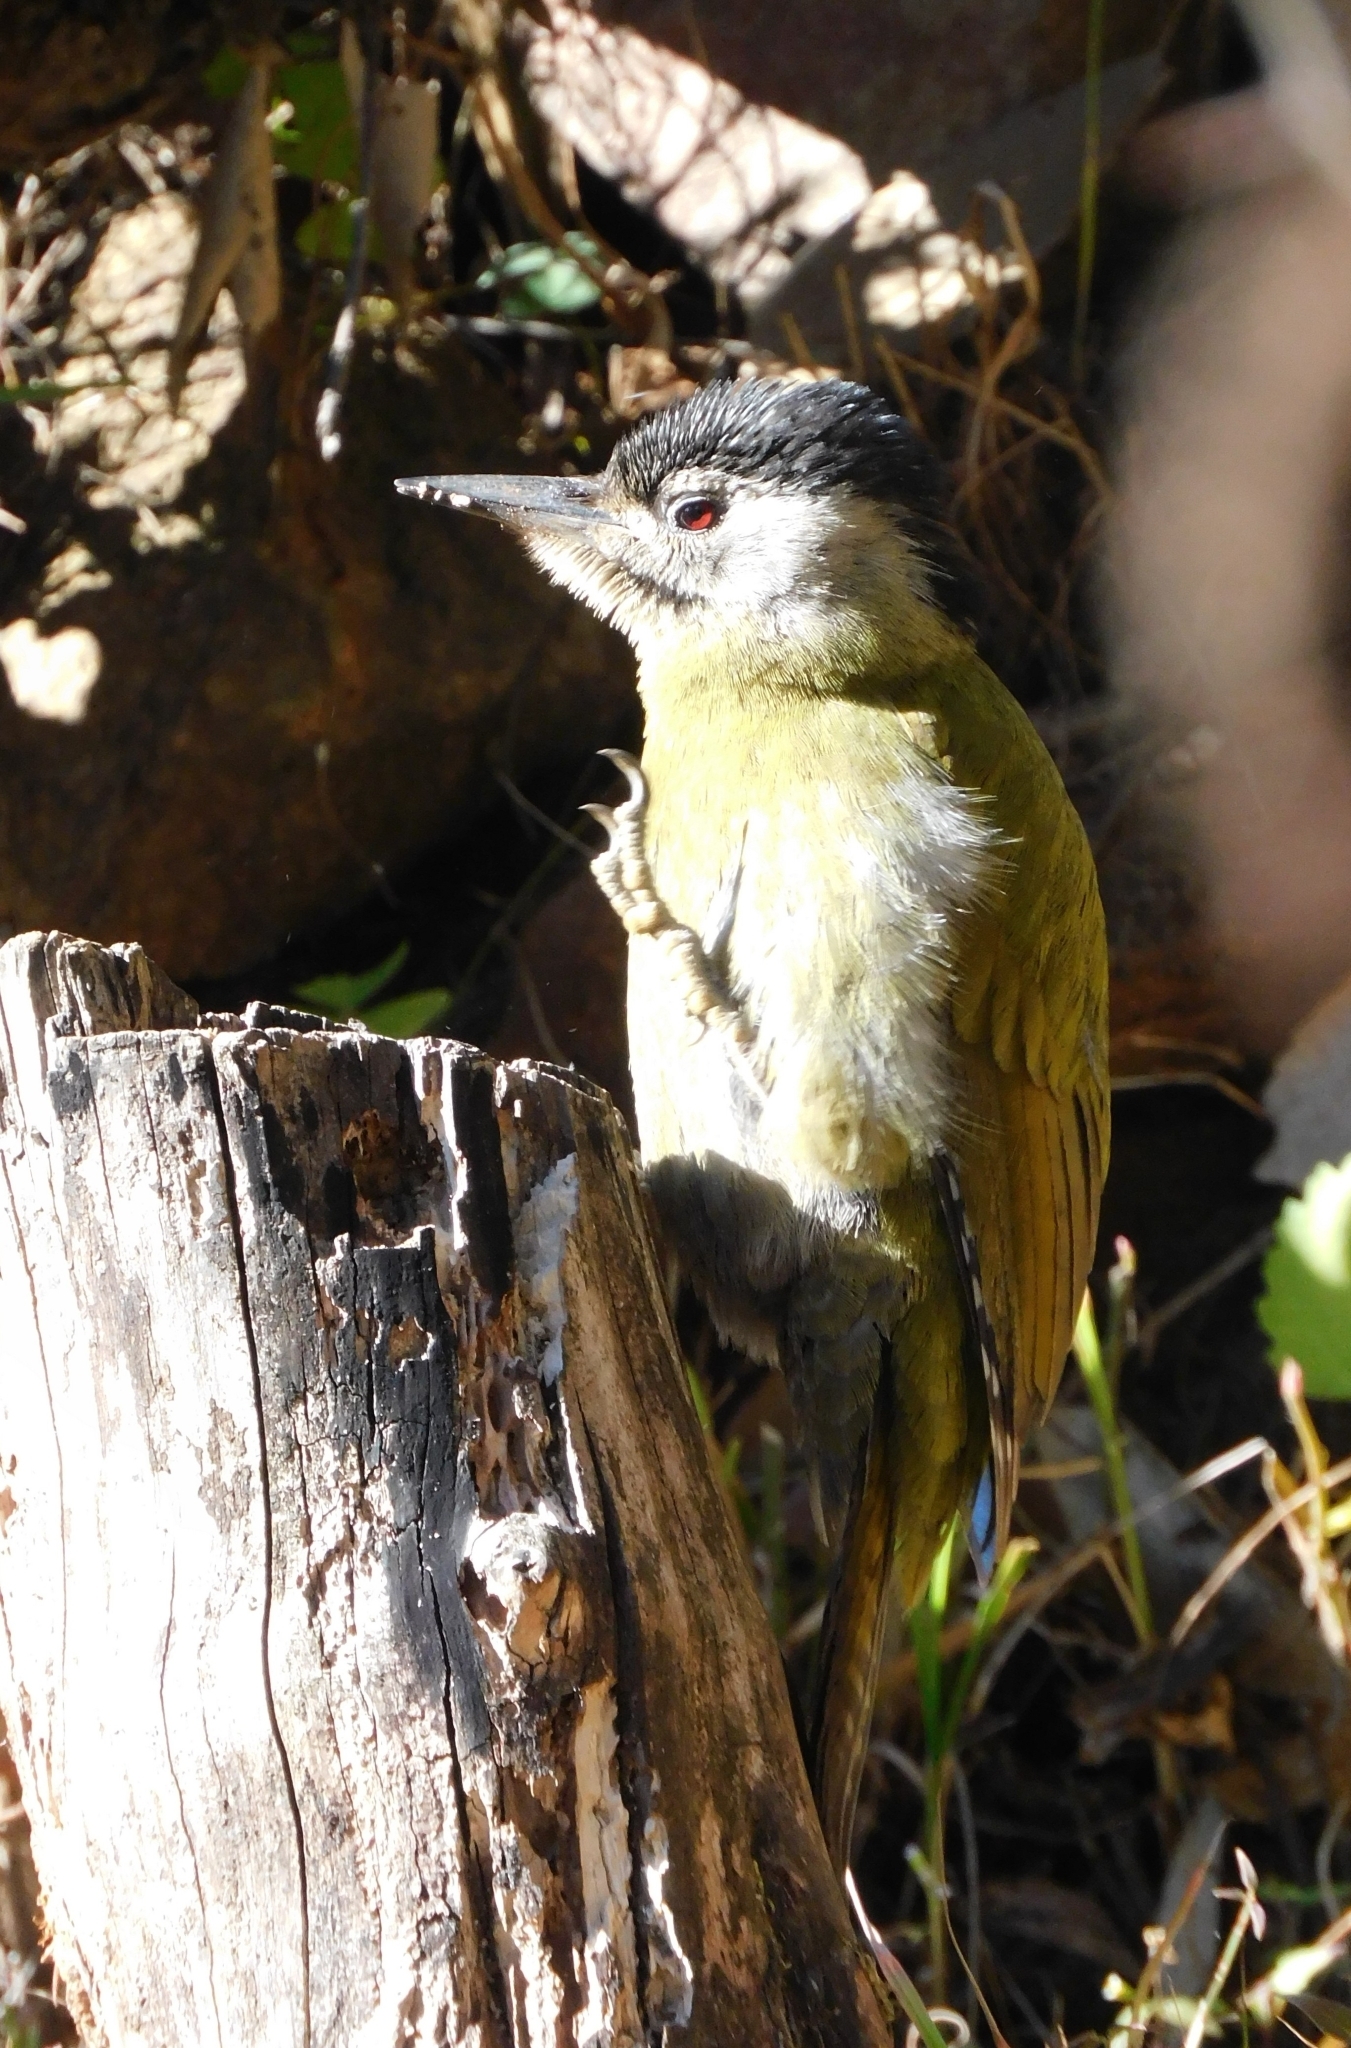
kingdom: Animalia
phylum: Chordata
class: Aves
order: Piciformes
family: Picidae
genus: Picus
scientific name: Picus canus
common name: Grey-headed woodpecker
